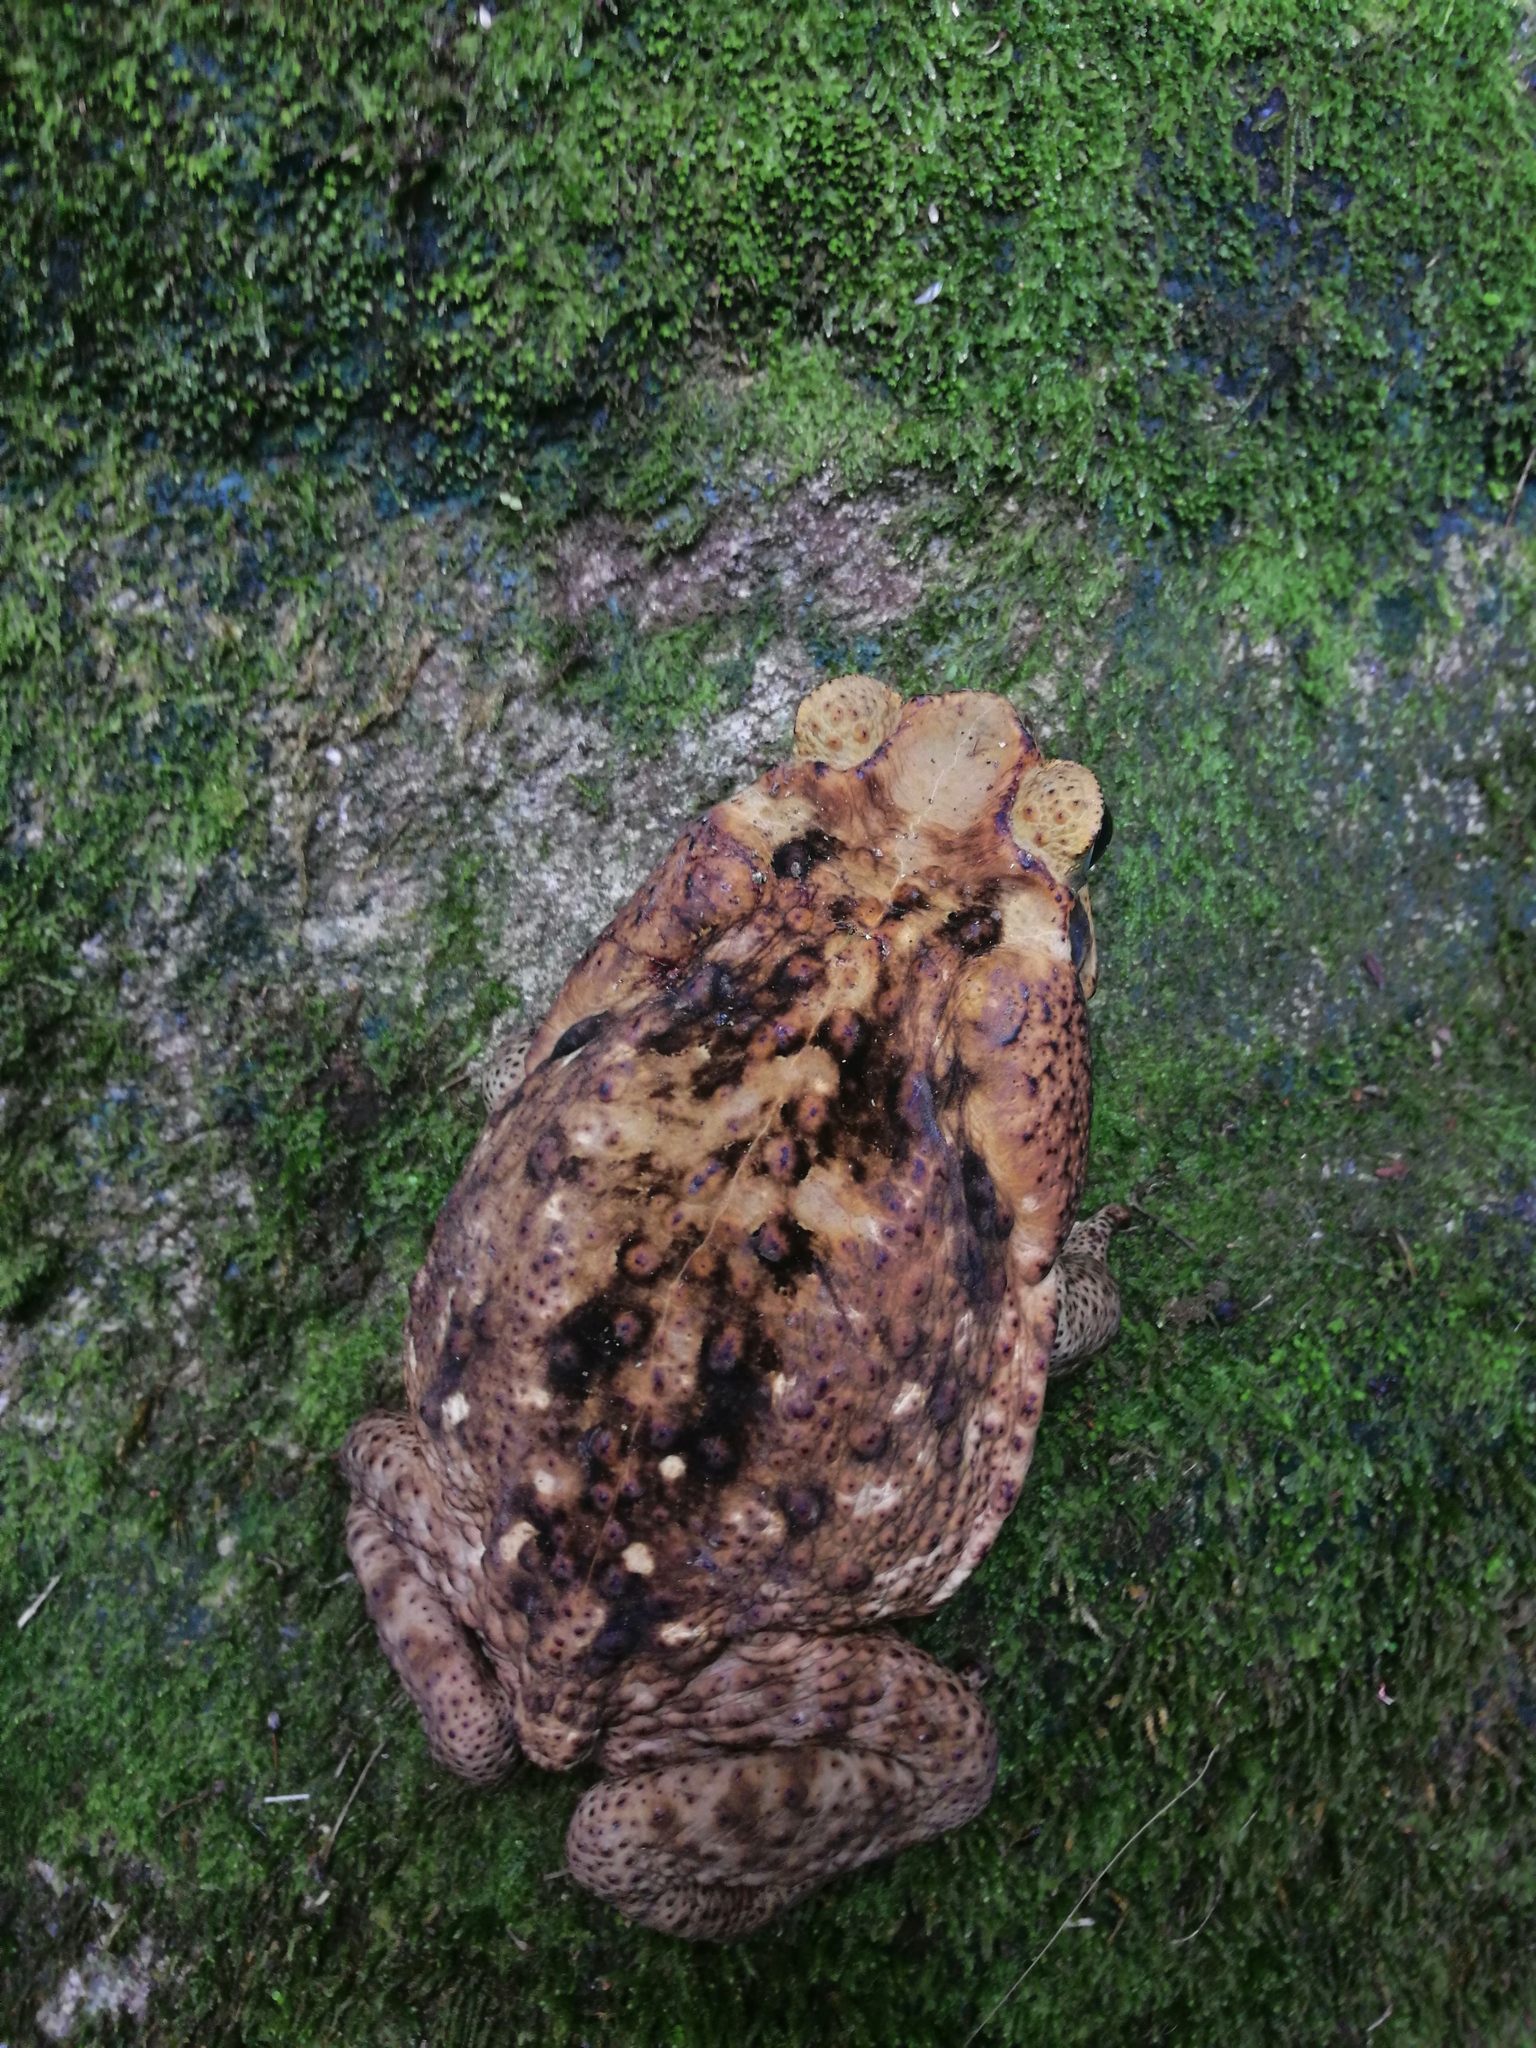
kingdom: Animalia
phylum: Chordata
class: Amphibia
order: Anura
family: Bufonidae
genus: Rhinella
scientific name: Rhinella horribilis
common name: Mesoamerican cane toad
